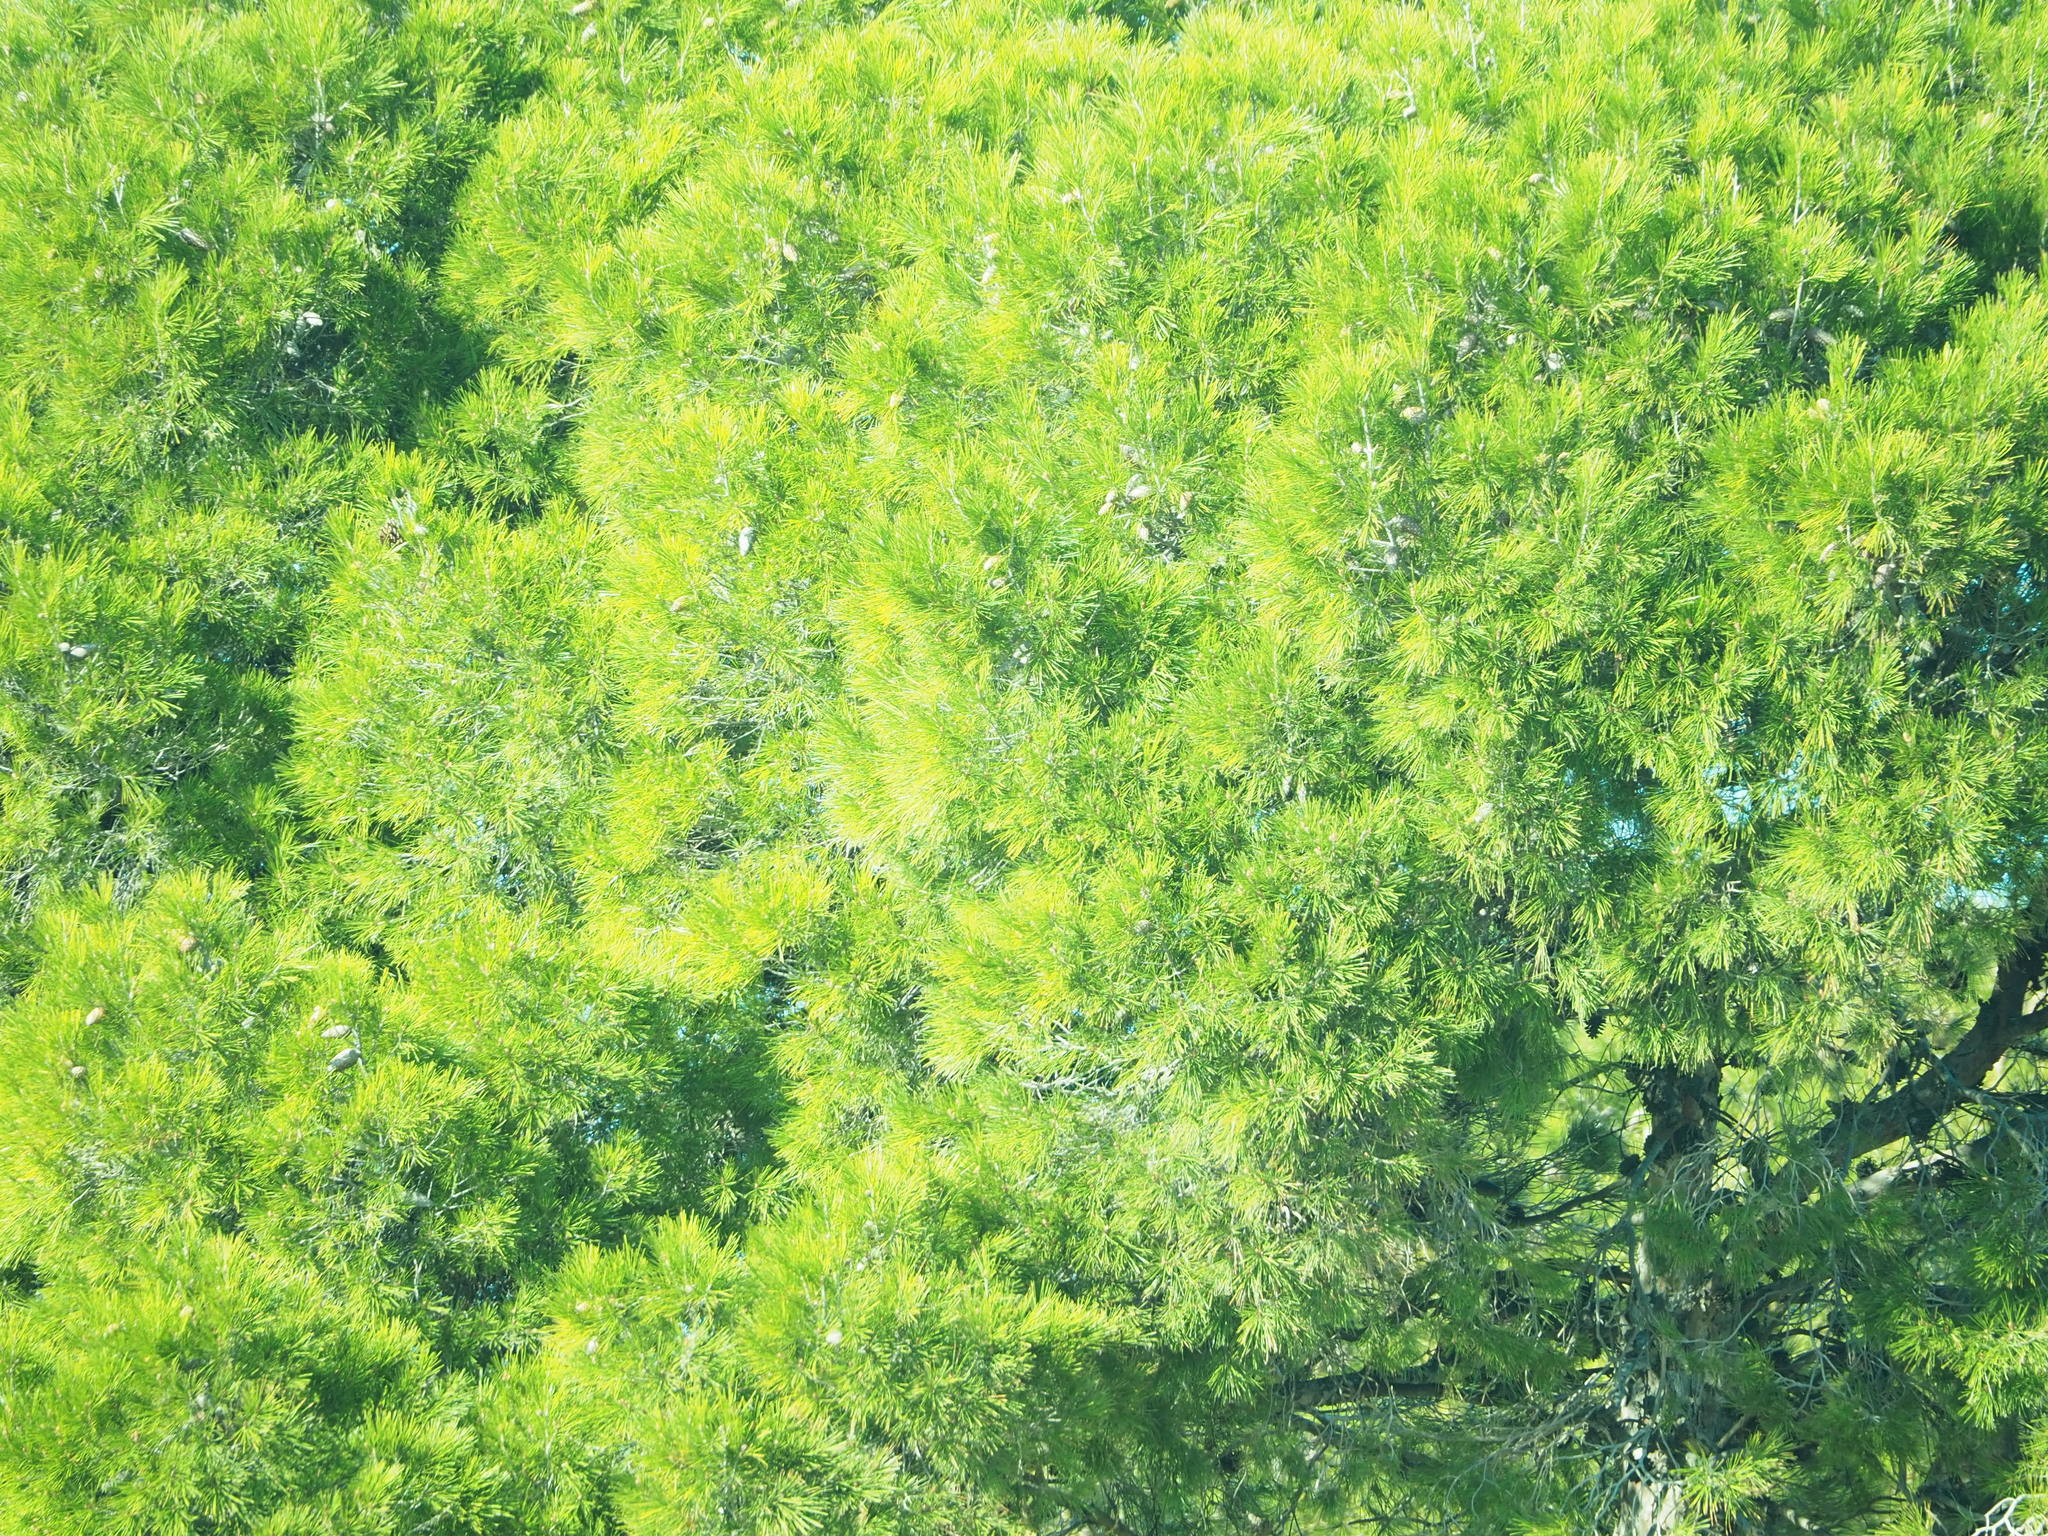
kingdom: Plantae
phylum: Tracheophyta
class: Pinopsida
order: Pinales
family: Pinaceae
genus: Pinus
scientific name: Pinus pinea
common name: Italian stone pine
